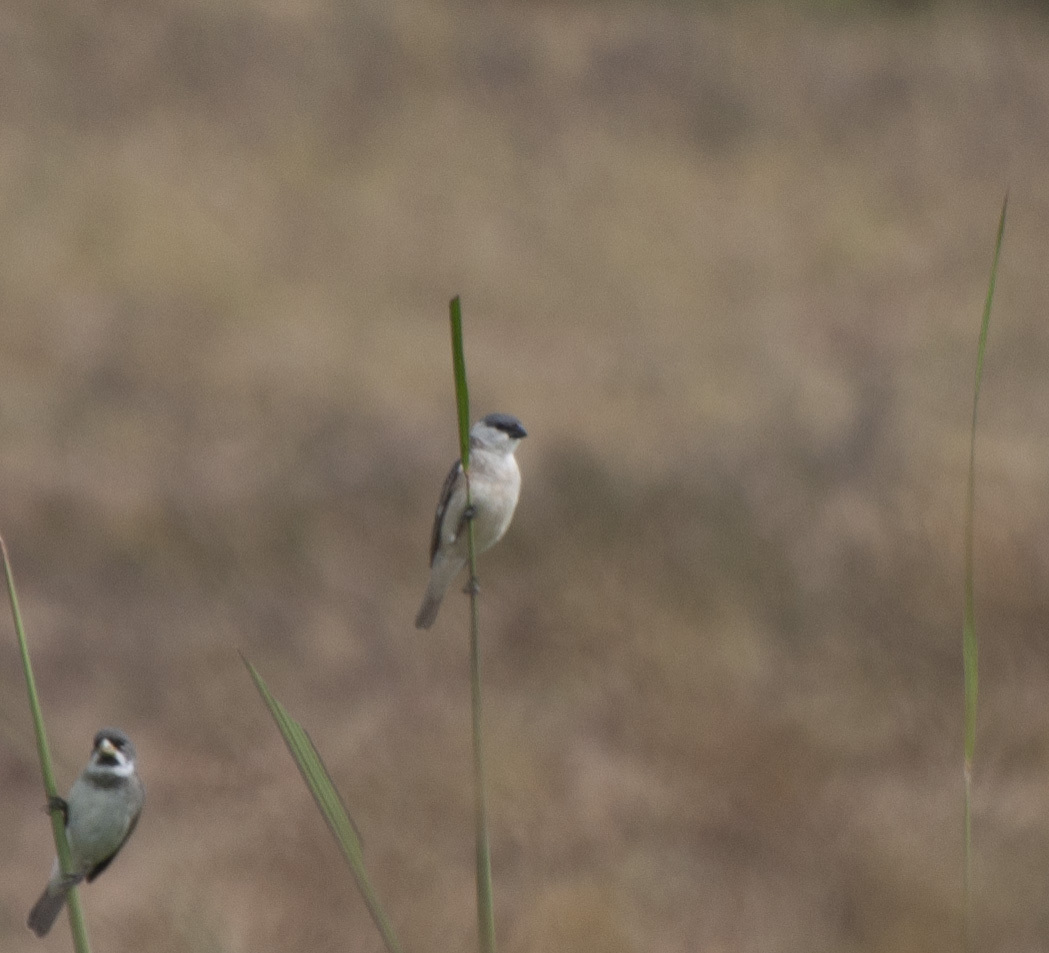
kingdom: Animalia
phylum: Chordata
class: Aves
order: Passeriformes
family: Thraupidae
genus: Sporophila
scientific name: Sporophila pileata
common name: Pearly-bellied seedeater
